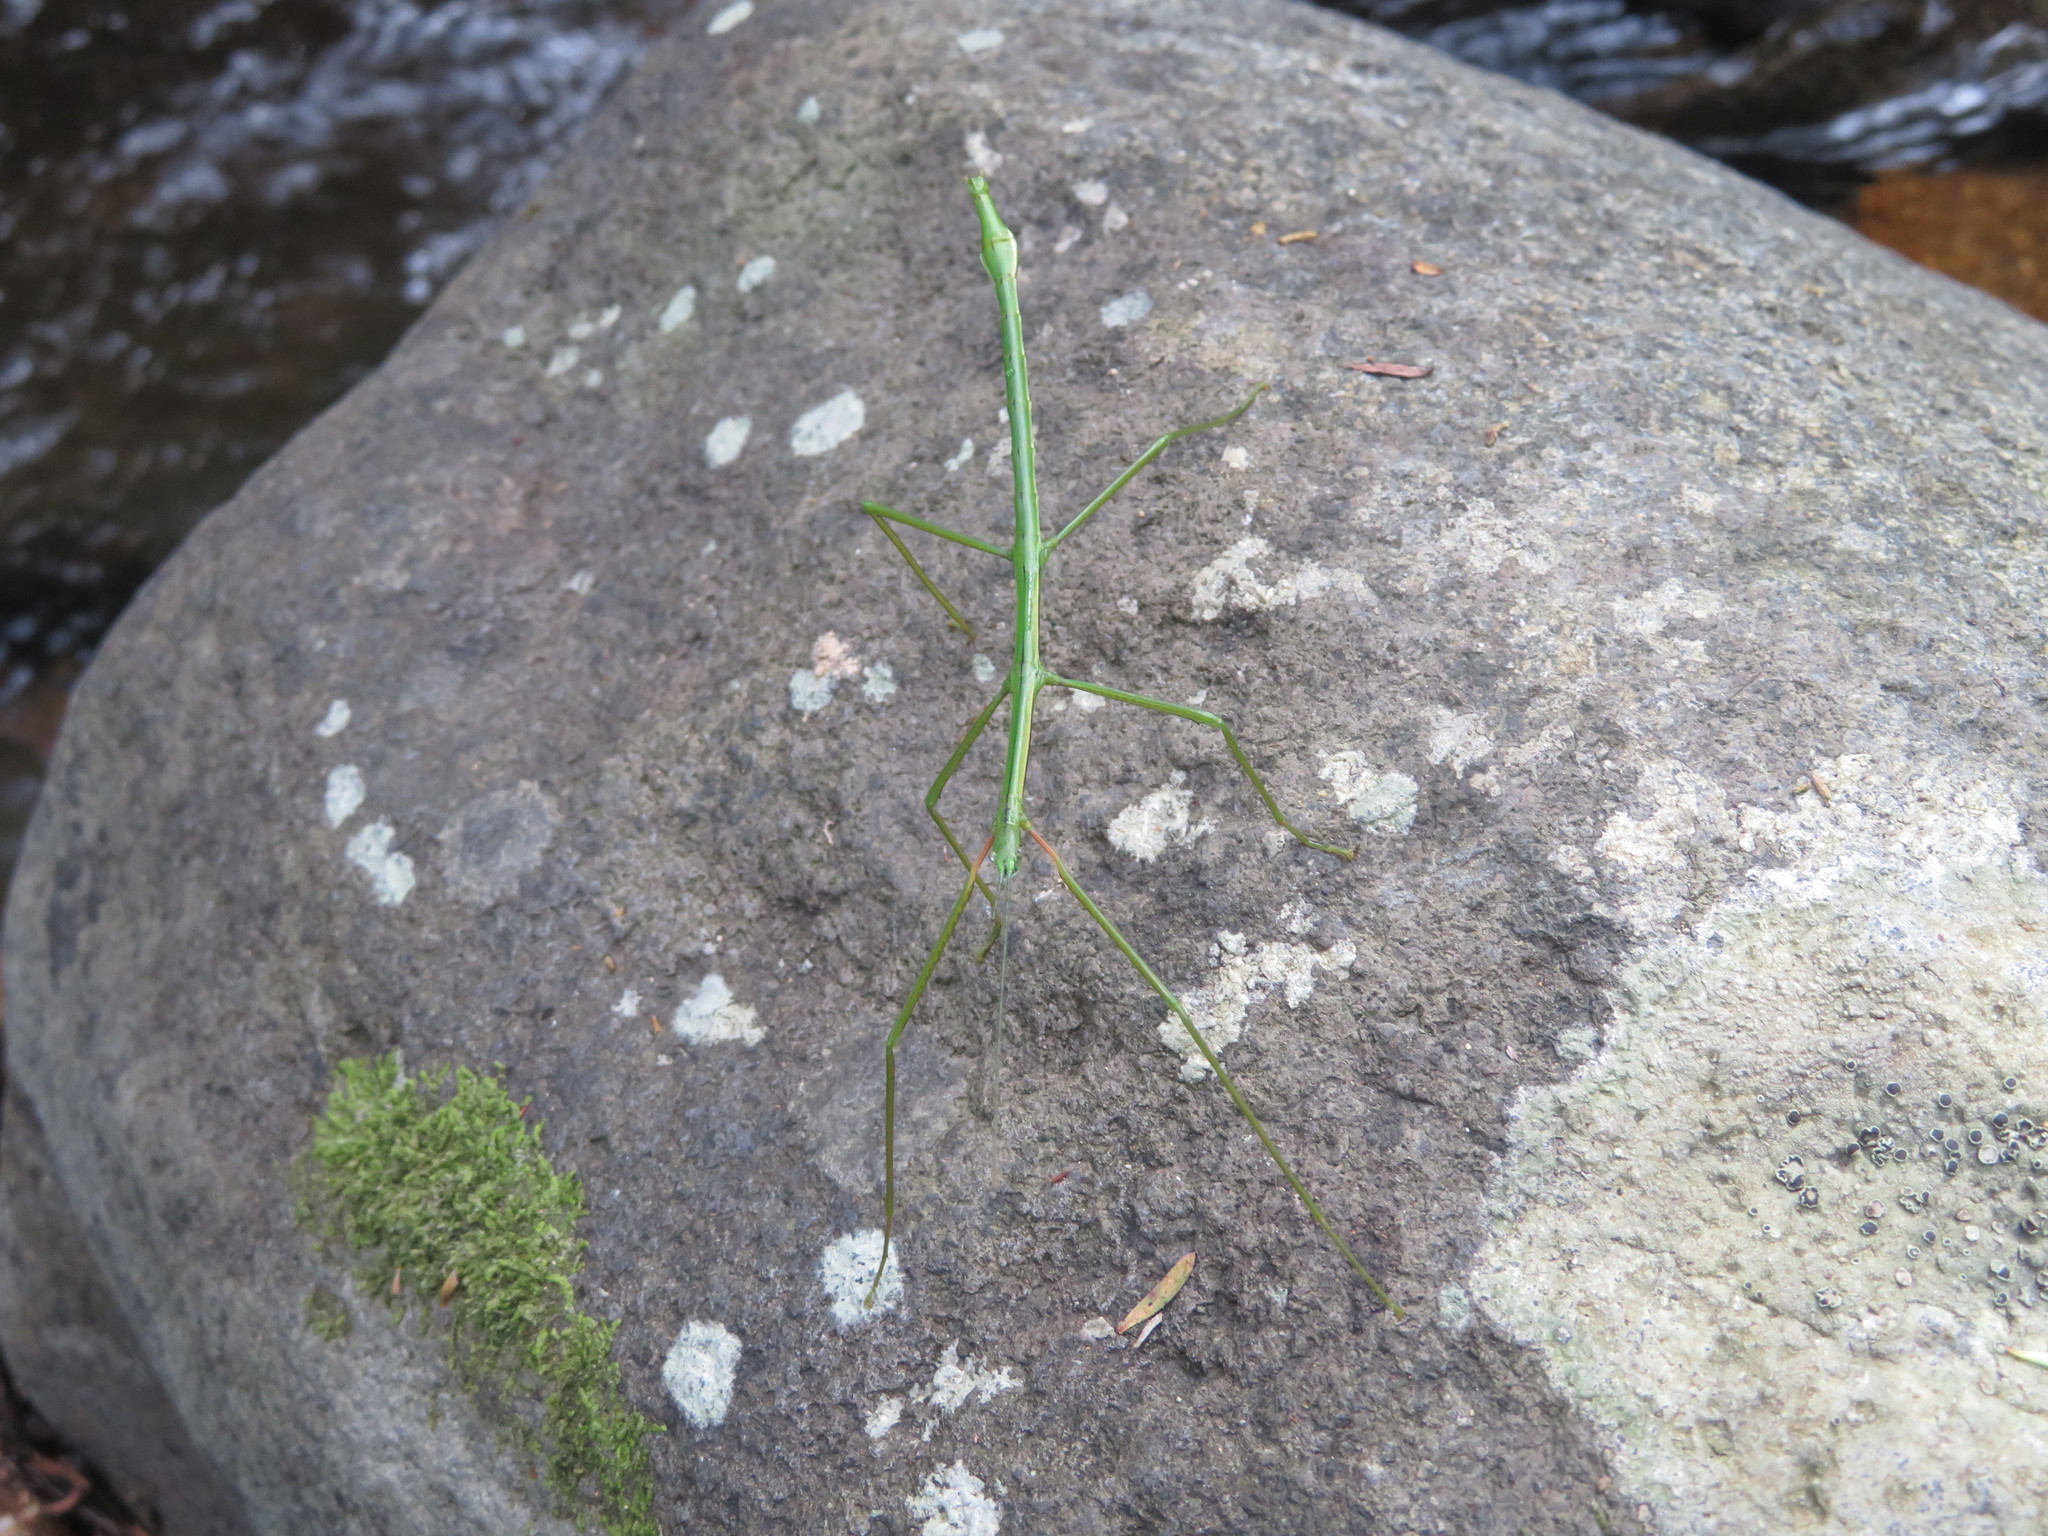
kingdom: Animalia
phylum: Arthropoda
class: Insecta
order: Phasmida
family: Phasmatidae
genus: Clitarchus
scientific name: Clitarchus hookeri
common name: Smooth stick insect
